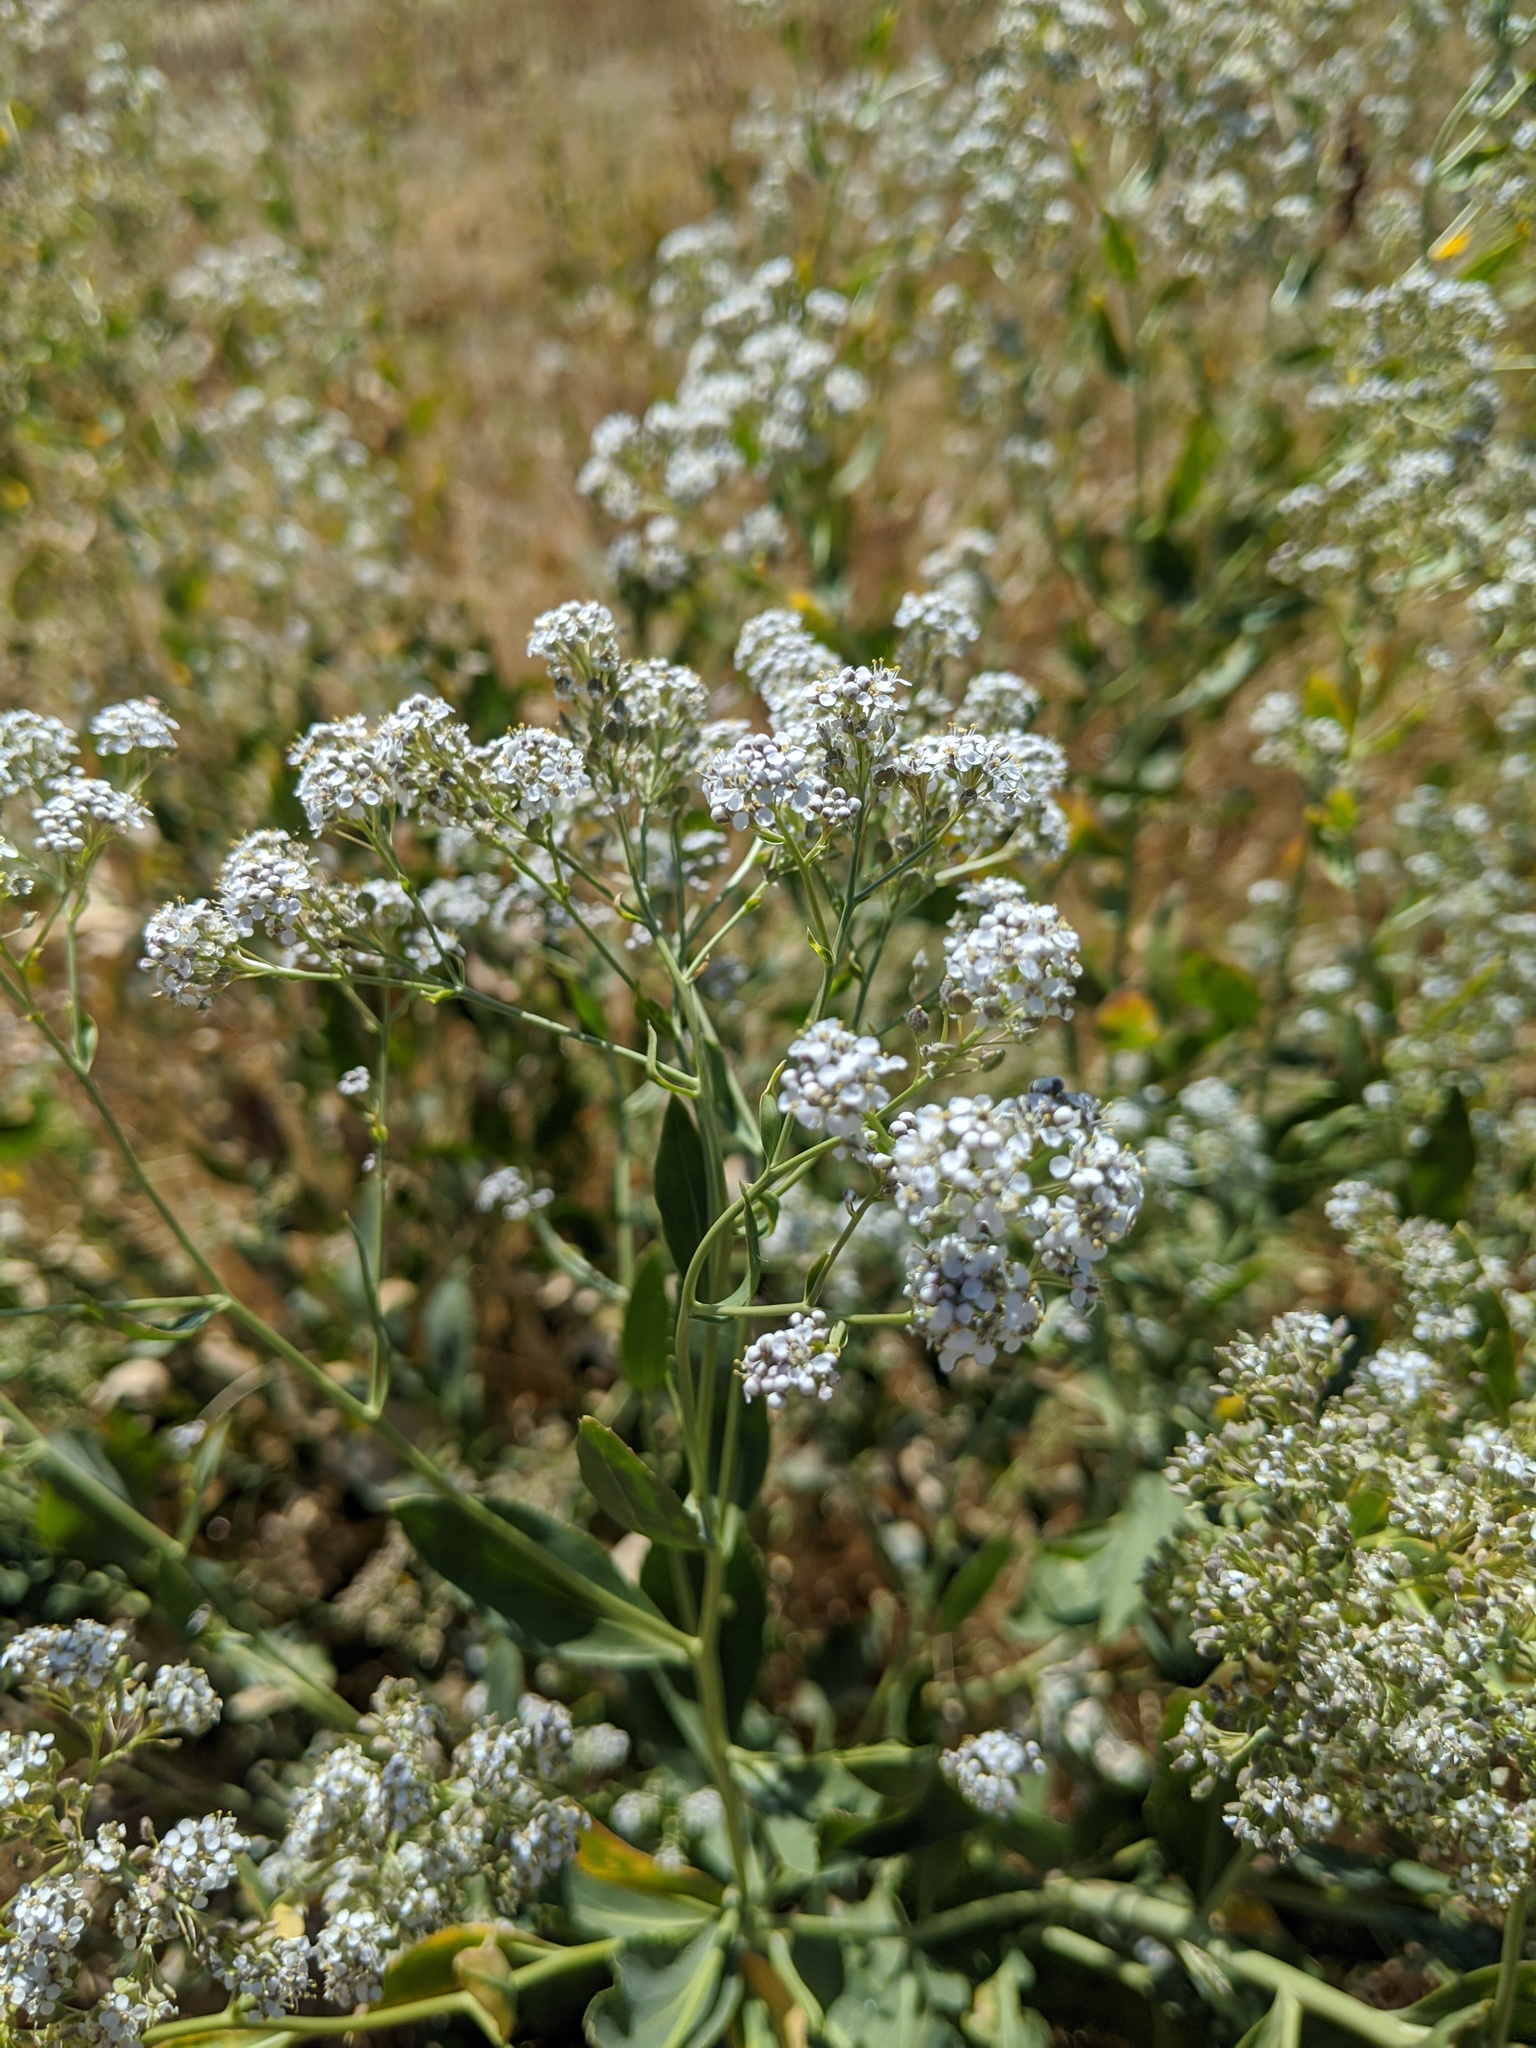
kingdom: Plantae
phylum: Tracheophyta
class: Magnoliopsida
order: Brassicales
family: Brassicaceae
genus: Lepidium
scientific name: Lepidium latifolium
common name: Dittander
